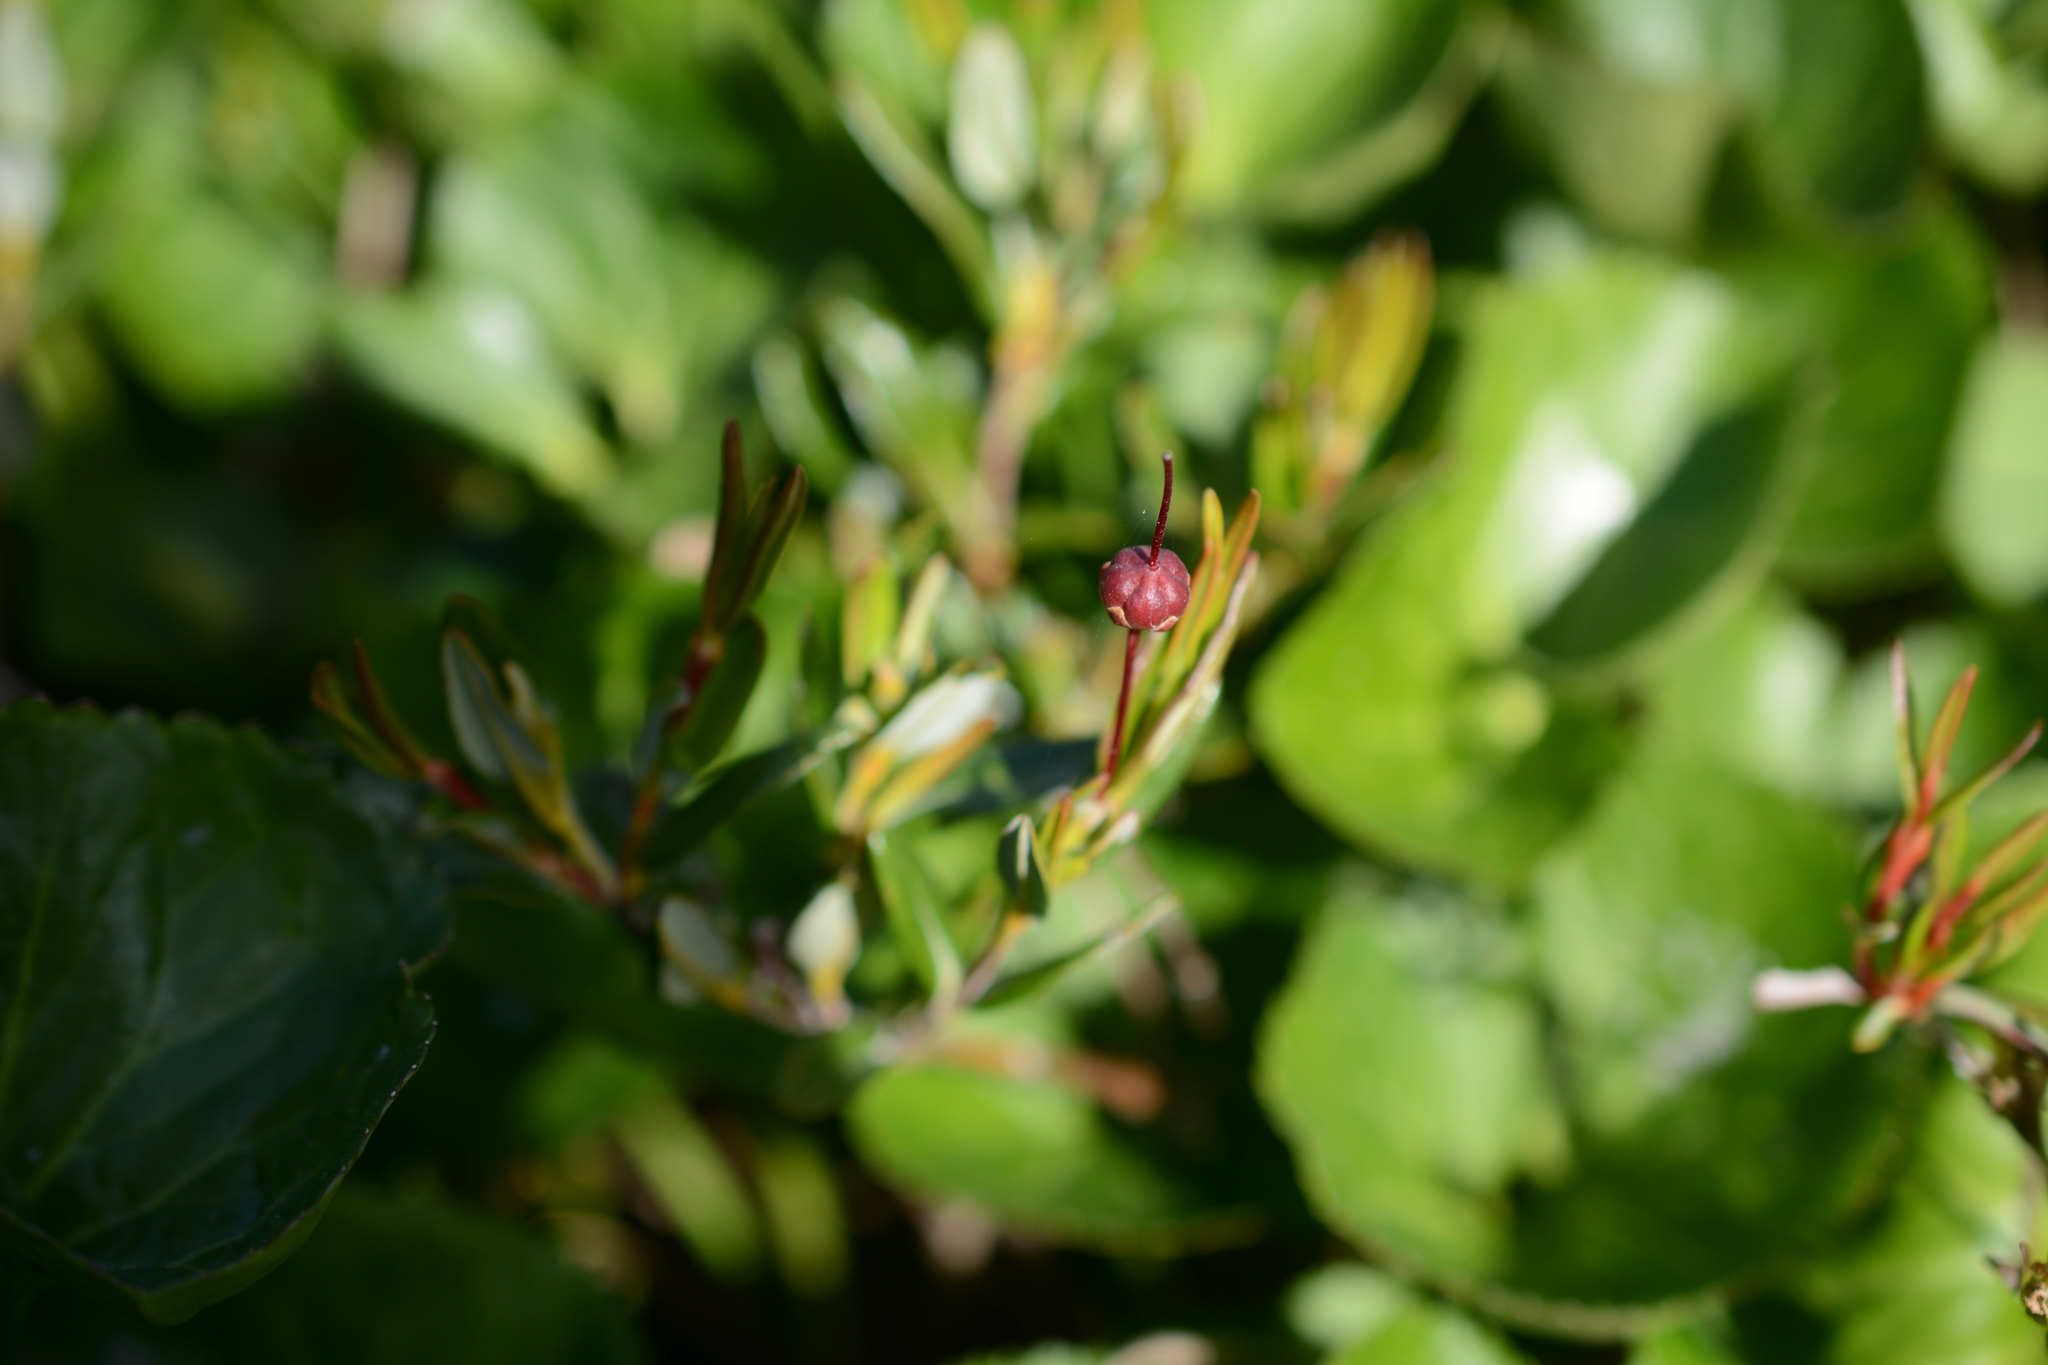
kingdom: Plantae
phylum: Tracheophyta
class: Magnoliopsida
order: Ericales
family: Ericaceae
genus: Kalmia
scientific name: Kalmia microphylla
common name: Alpine bog laurel
